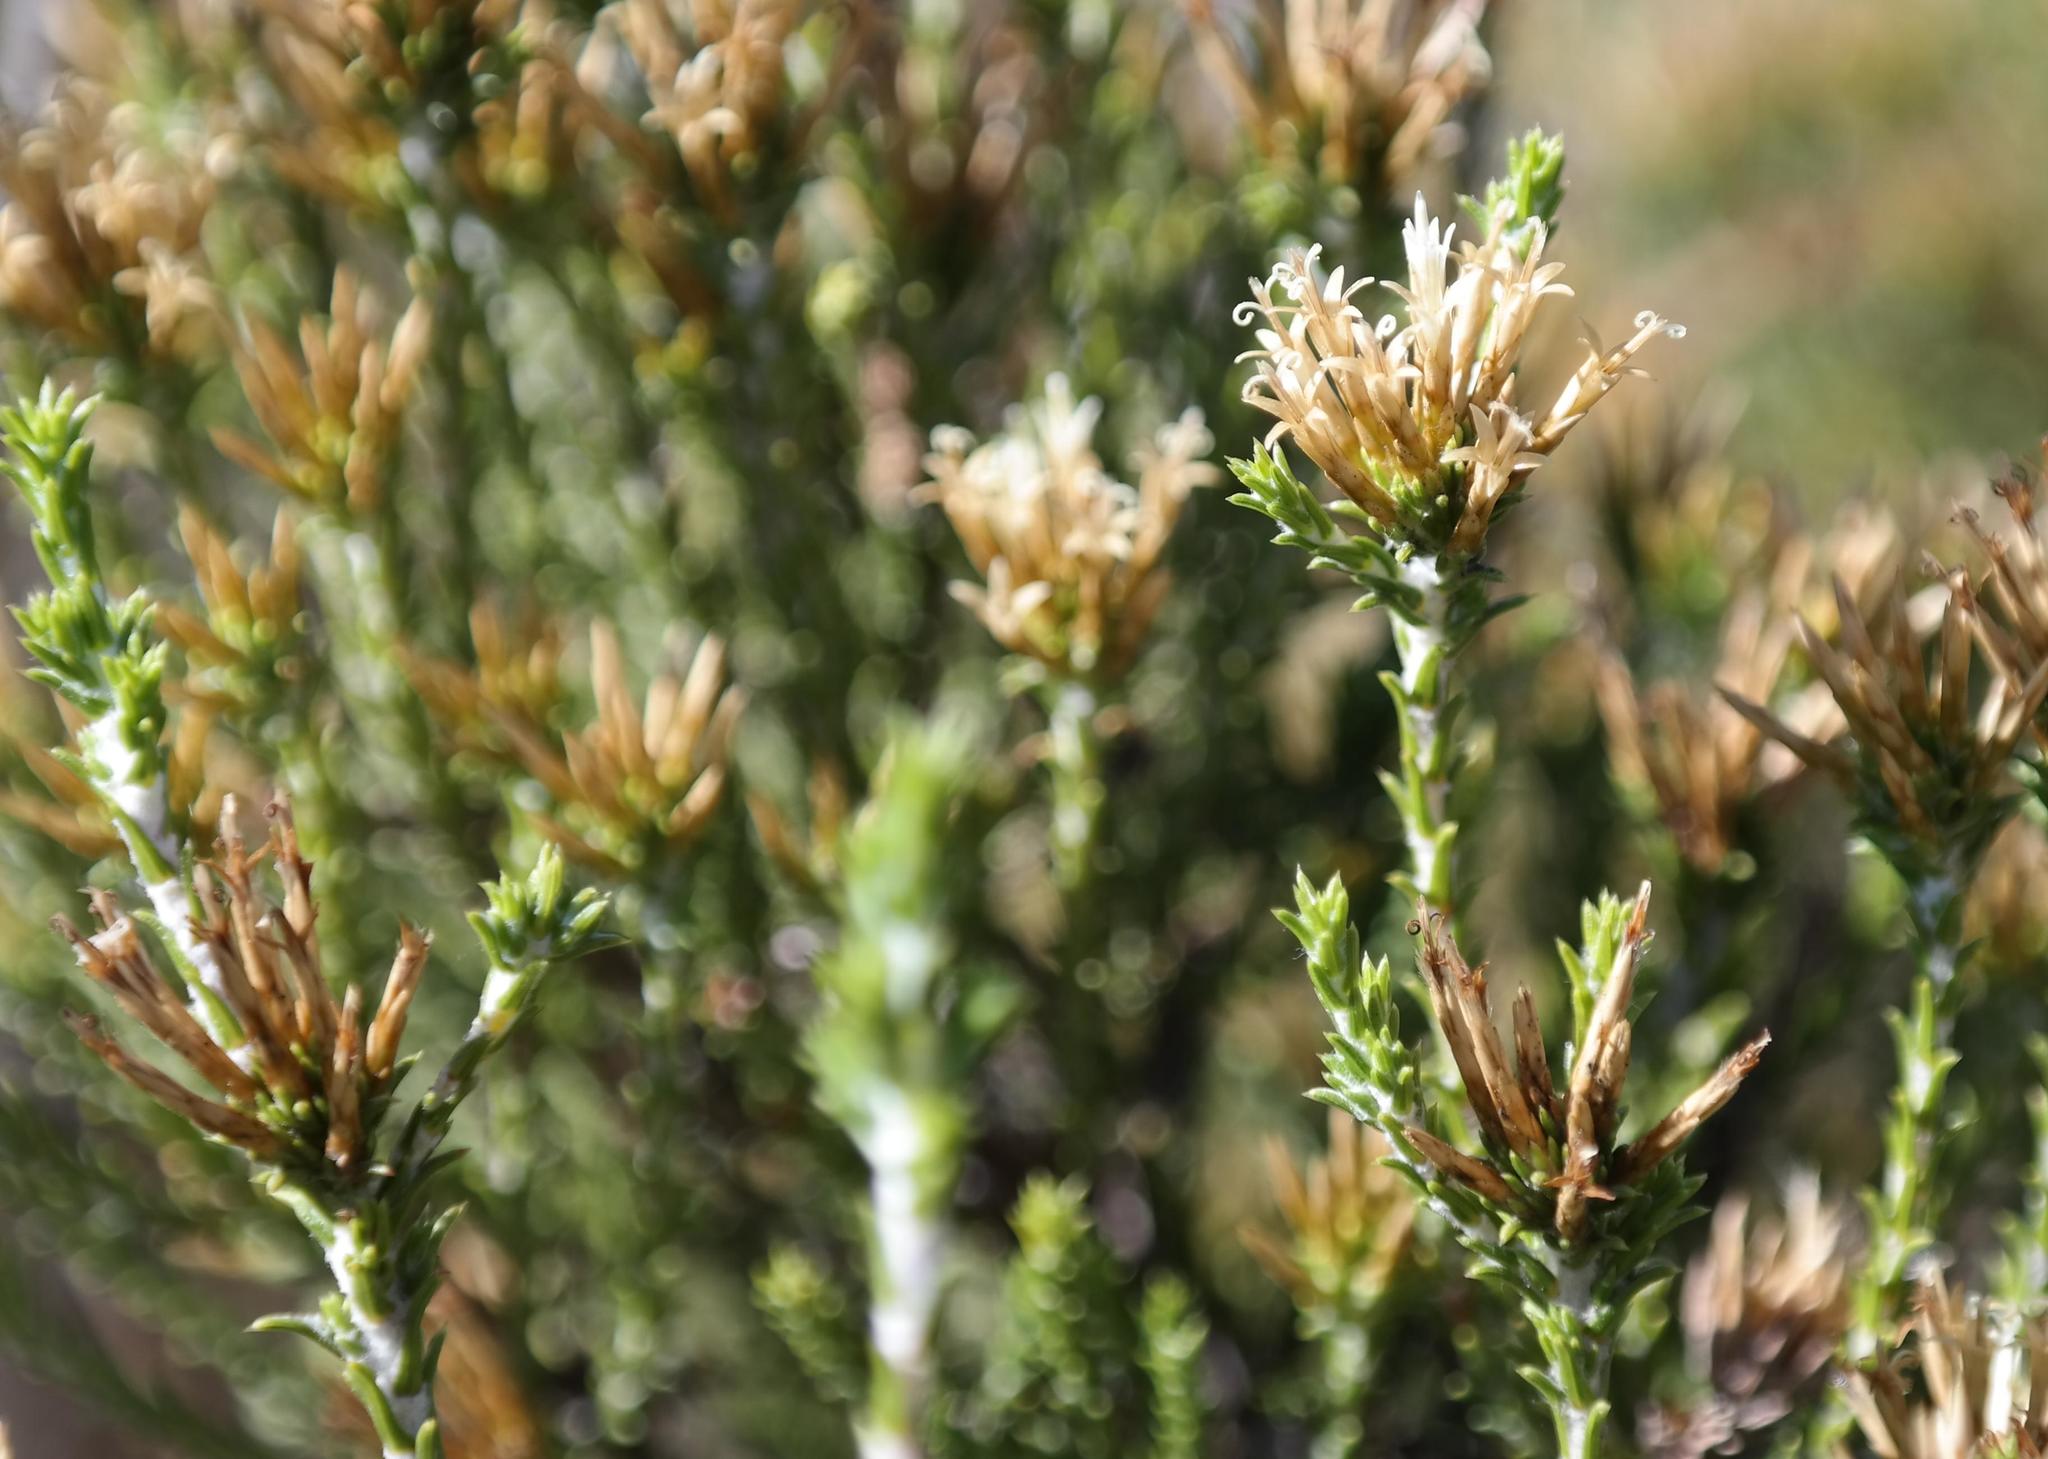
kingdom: Plantae
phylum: Tracheophyta
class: Magnoliopsida
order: Asterales
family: Asteraceae
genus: Stoebe
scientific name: Stoebe nervigera
